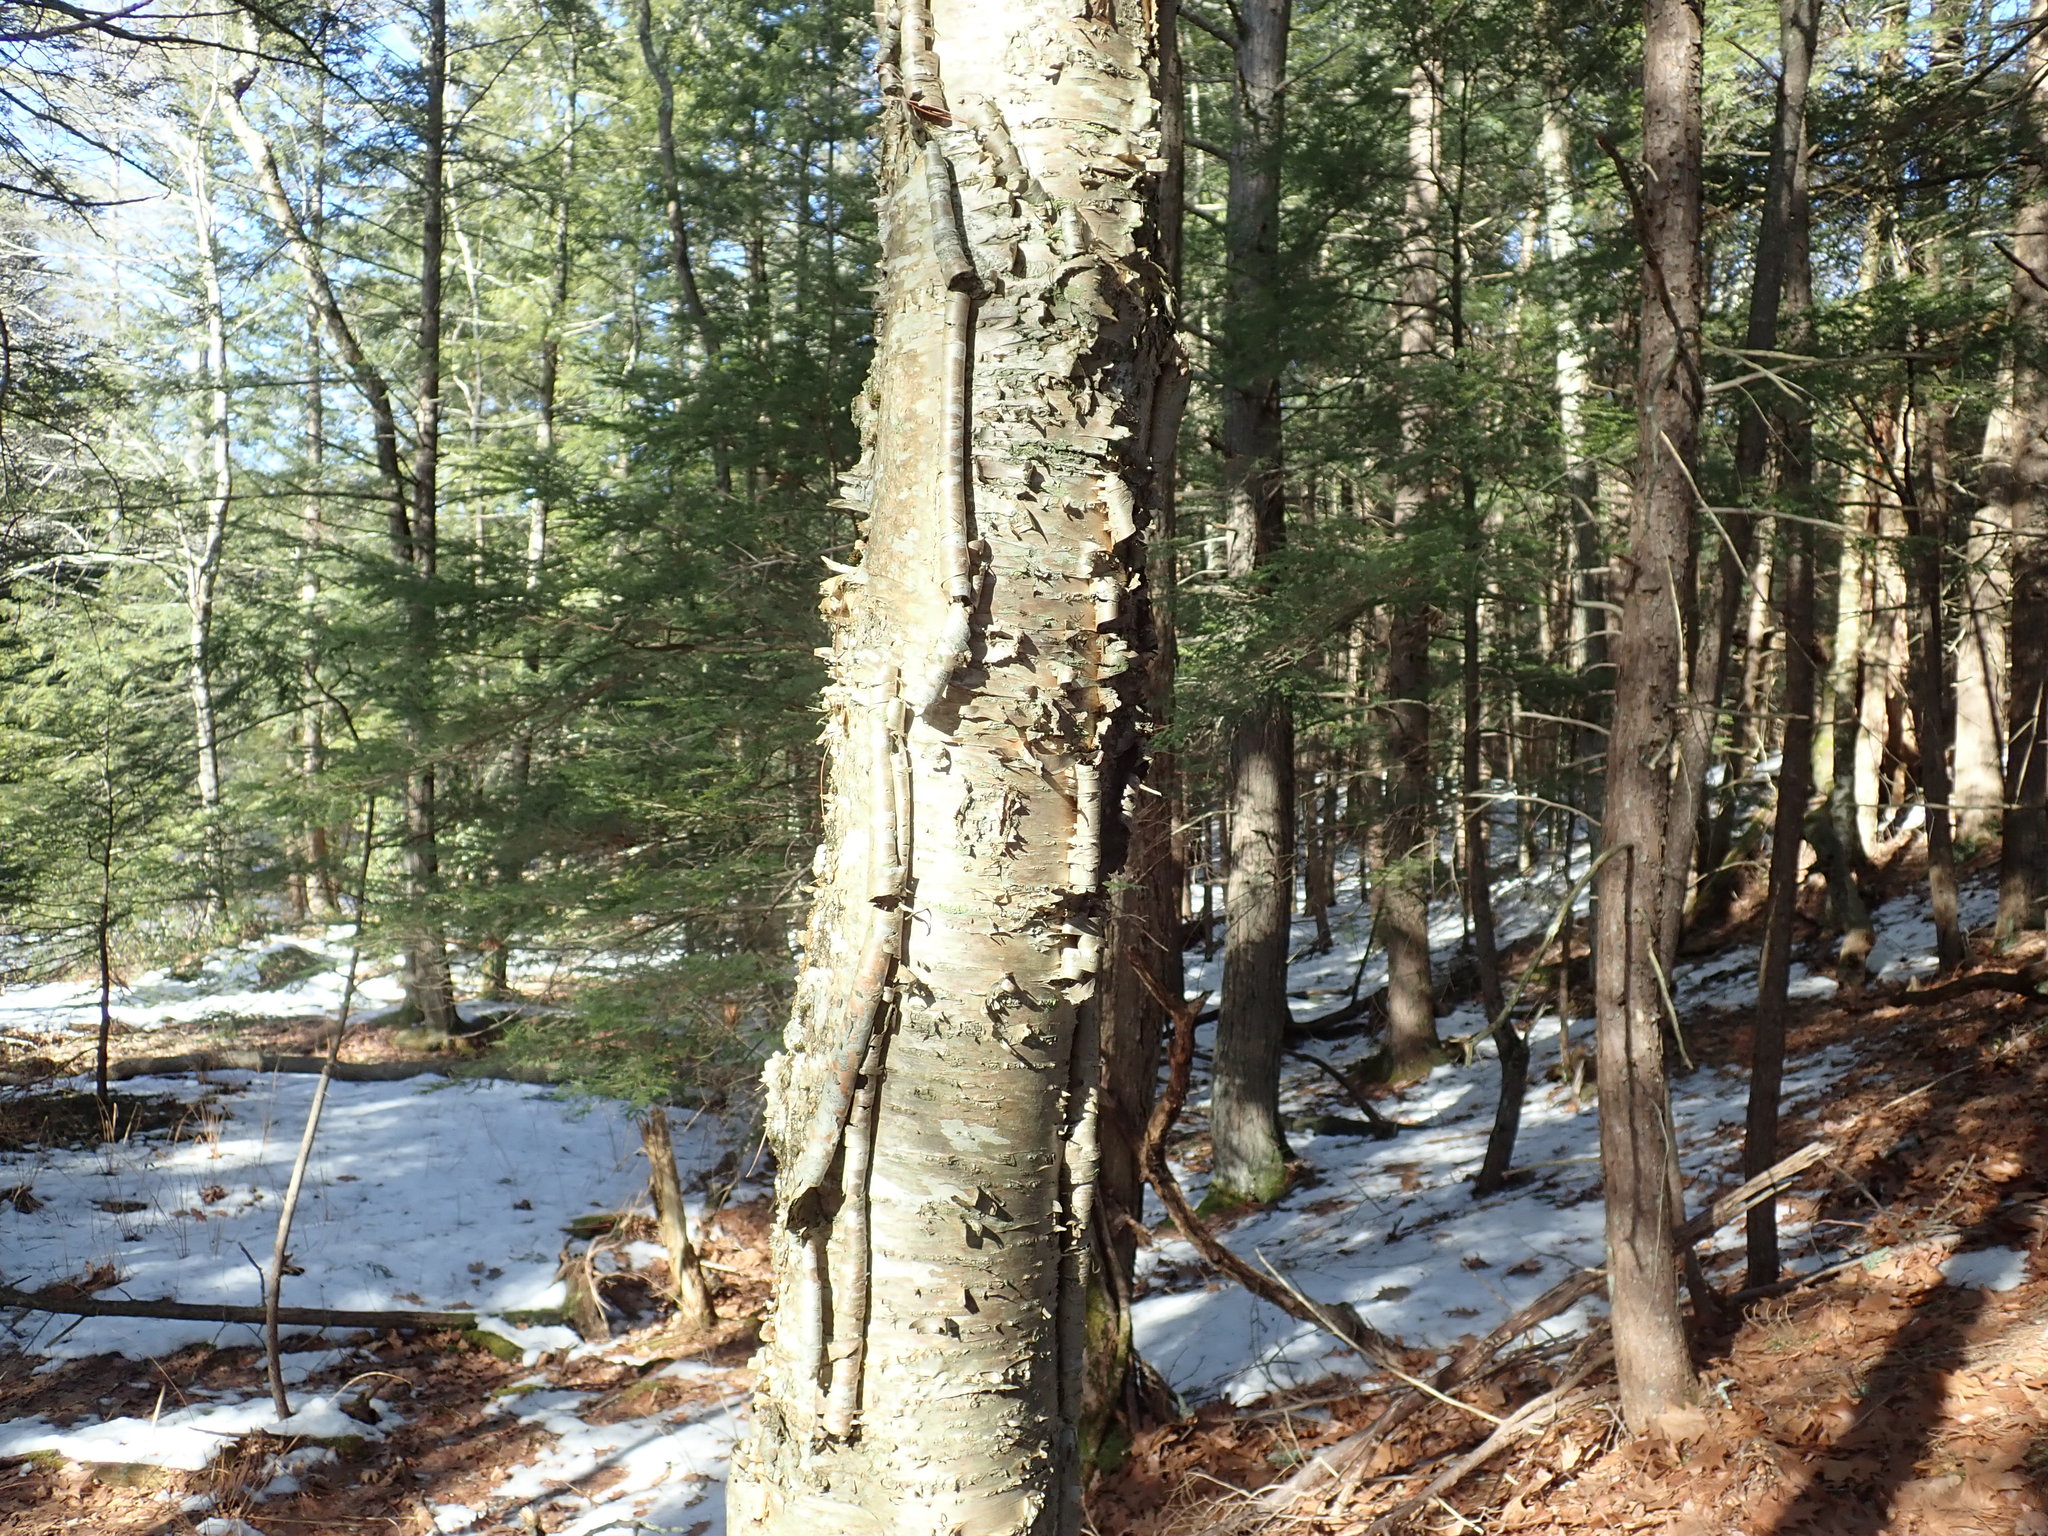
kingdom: Plantae
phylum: Tracheophyta
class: Magnoliopsida
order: Fagales
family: Betulaceae
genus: Betula
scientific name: Betula alleghaniensis
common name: Yellow birch
